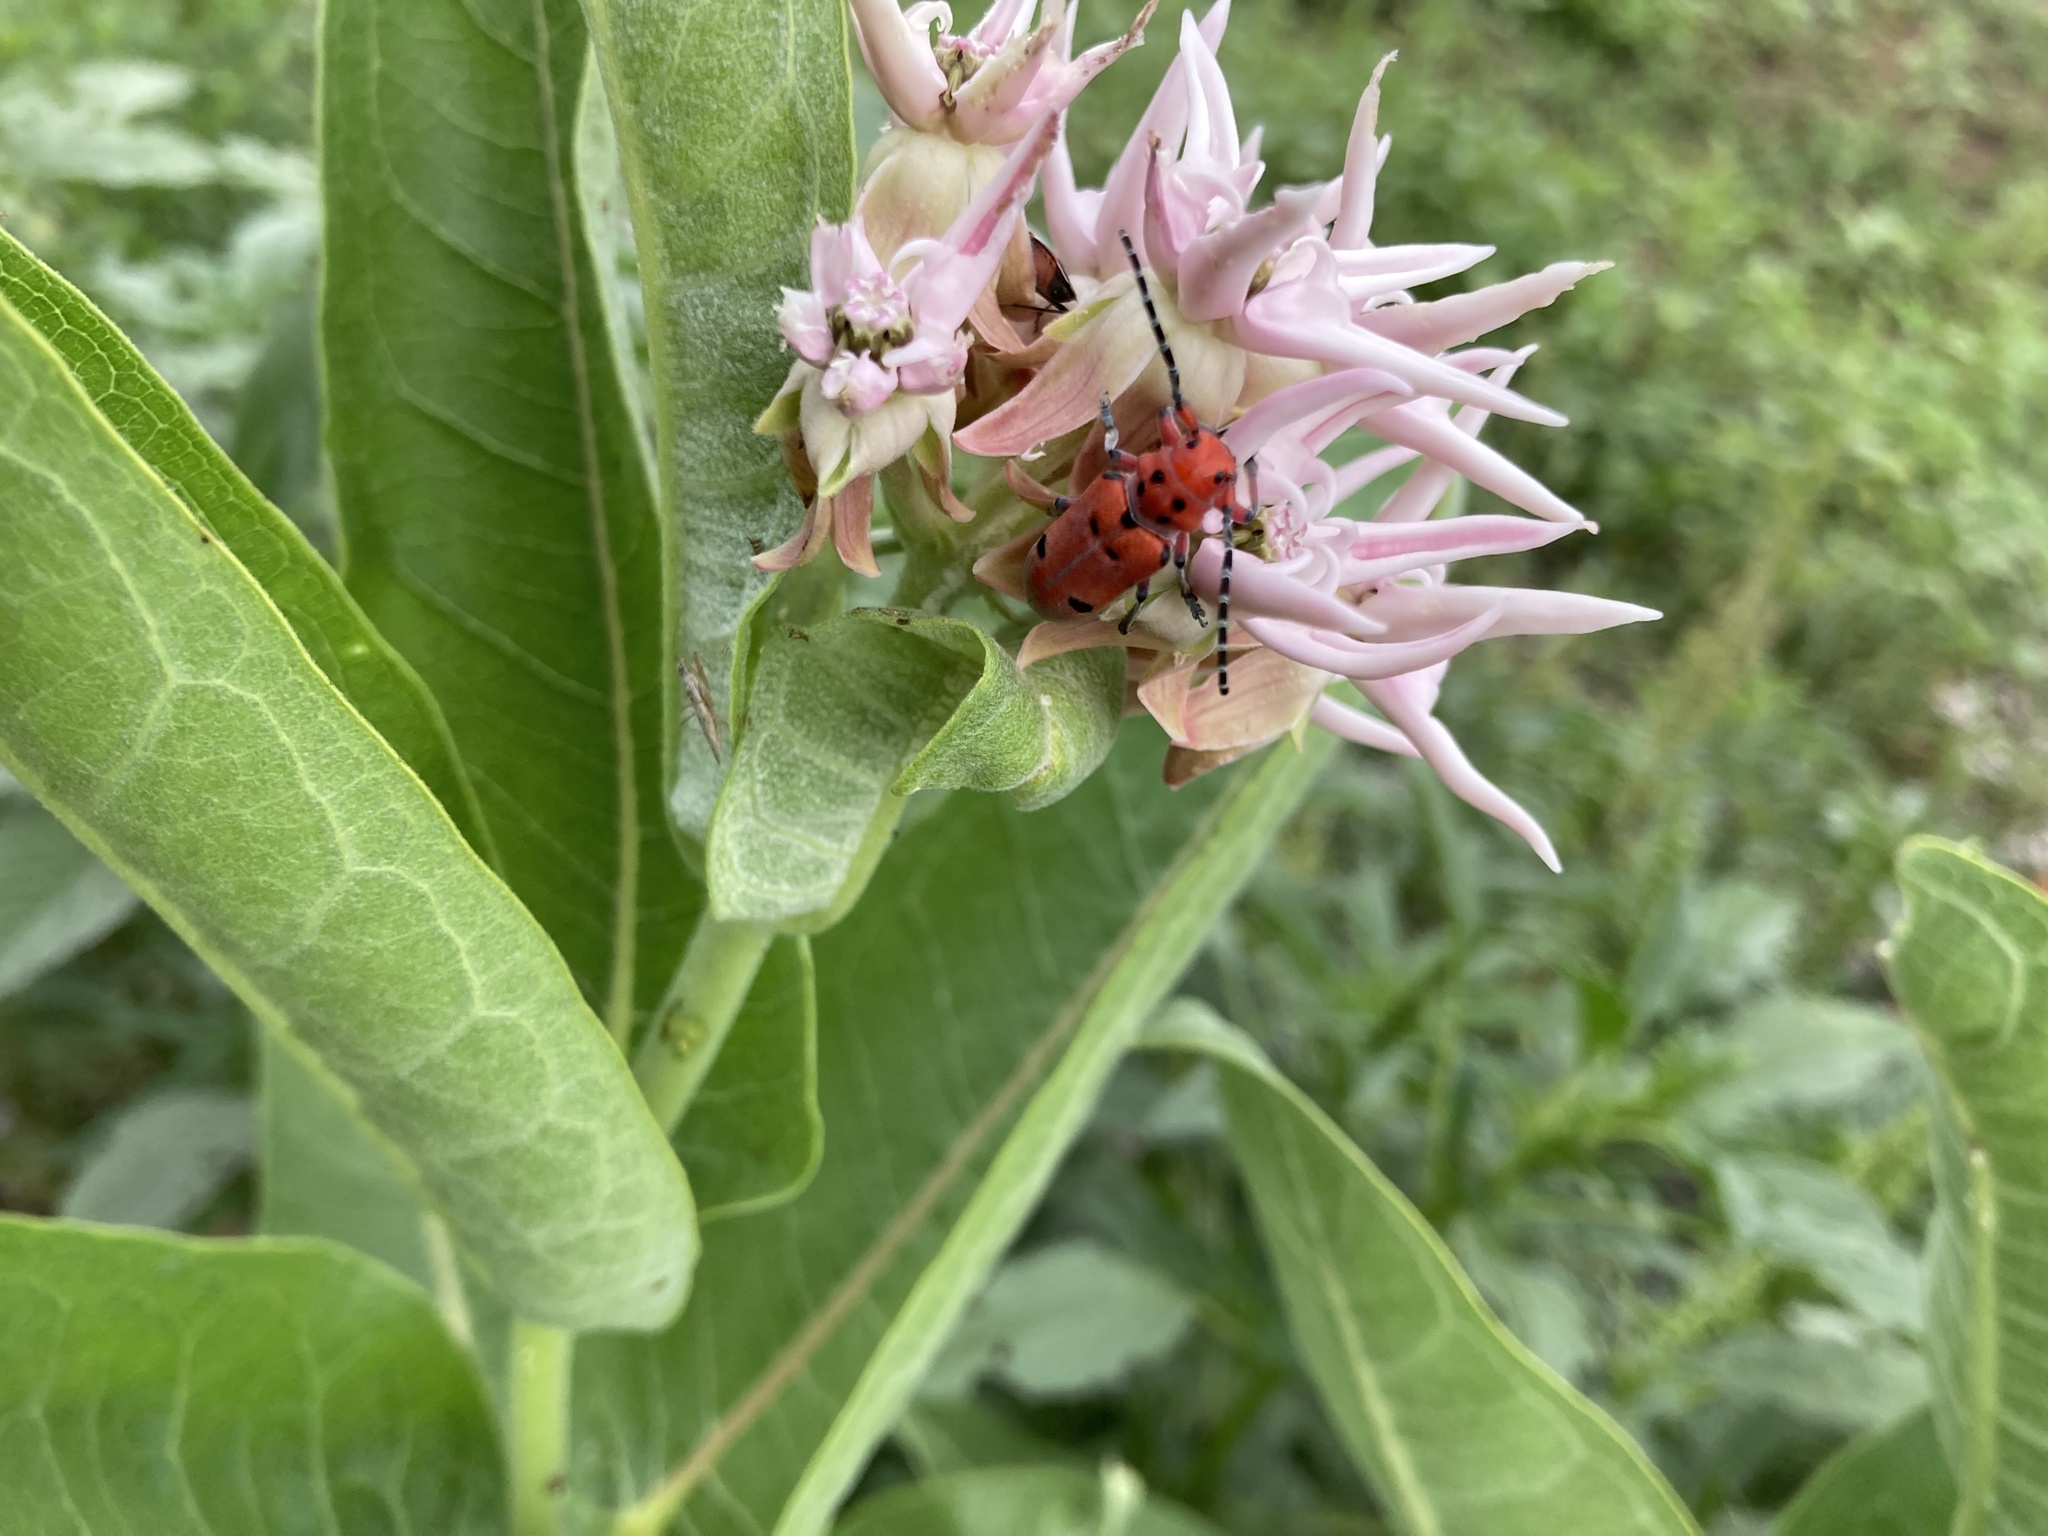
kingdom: Animalia
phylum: Arthropoda
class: Insecta
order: Coleoptera
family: Cerambycidae
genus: Tetraopes
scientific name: Tetraopes femoratus
